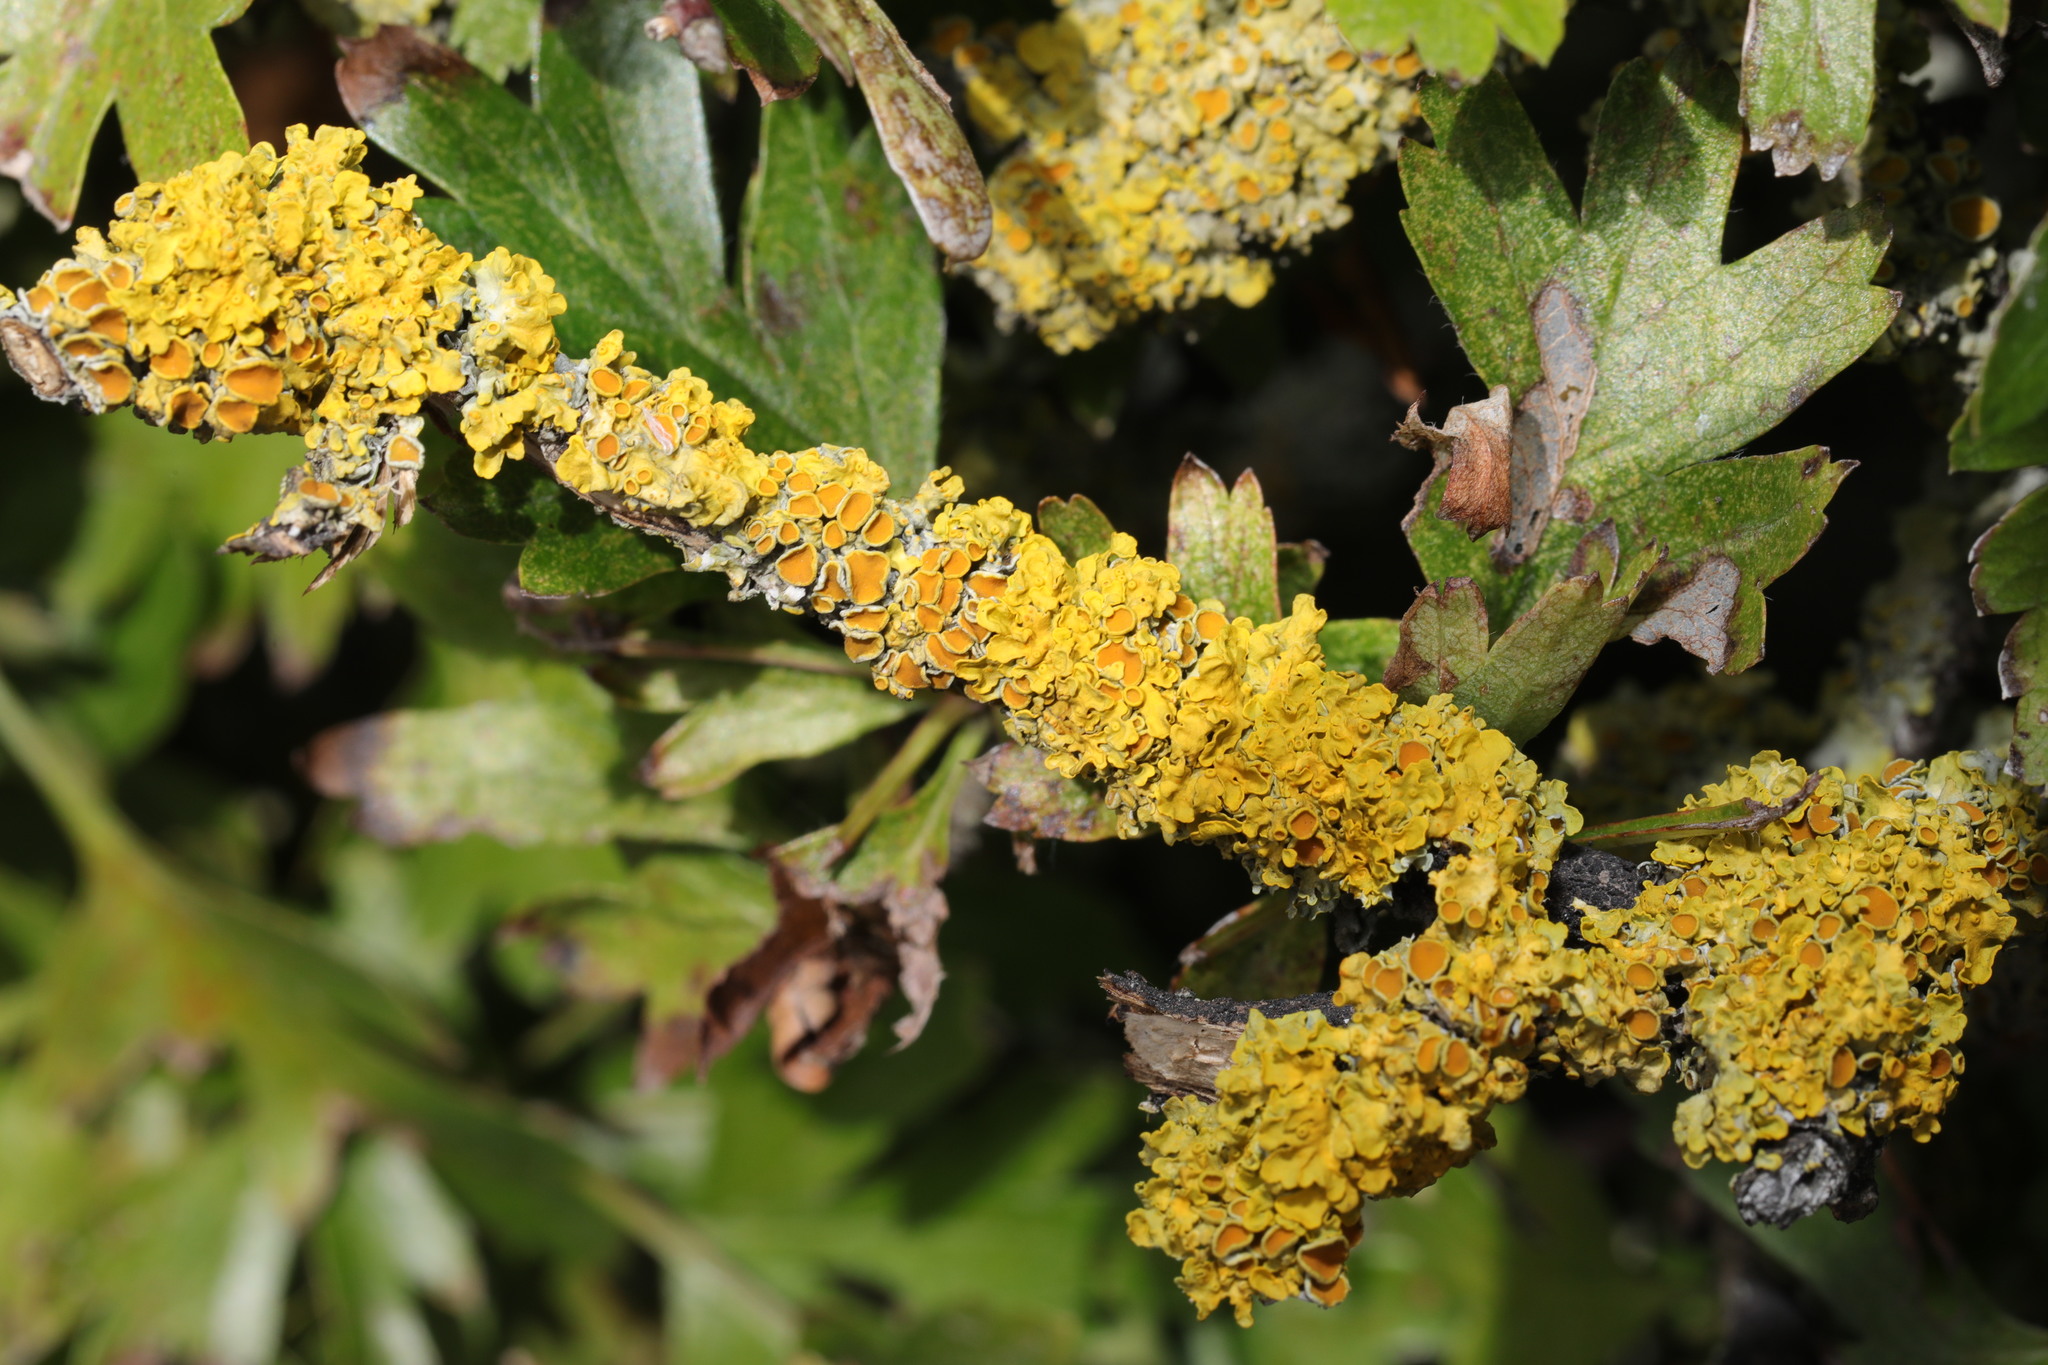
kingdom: Fungi
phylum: Ascomycota
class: Lecanoromycetes
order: Teloschistales
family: Teloschistaceae
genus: Xanthoria
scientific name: Xanthoria parietina
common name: Common orange lichen
